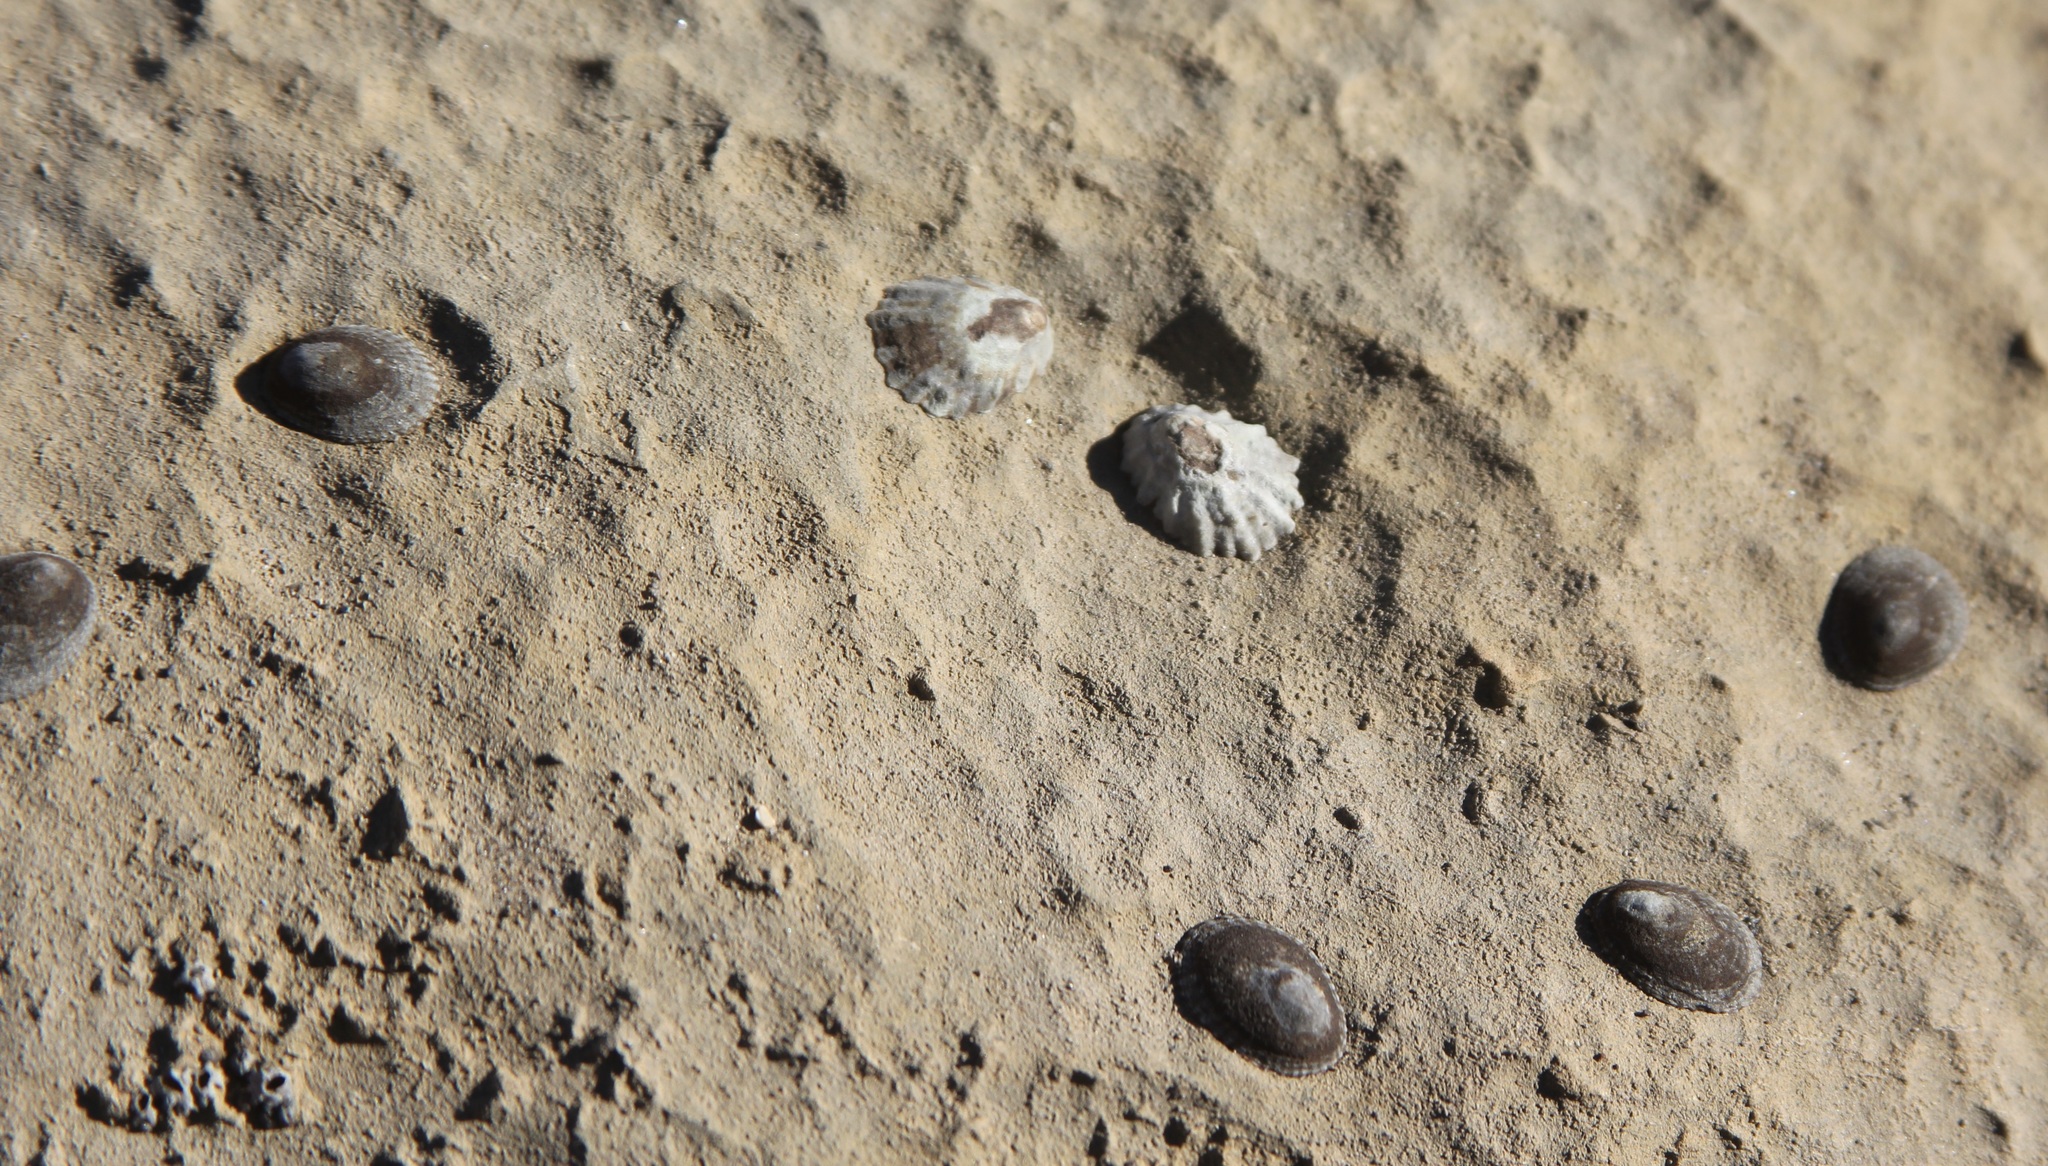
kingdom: Animalia
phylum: Mollusca
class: Gastropoda
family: Lottiidae
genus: Lottia
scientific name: Lottia scabra
